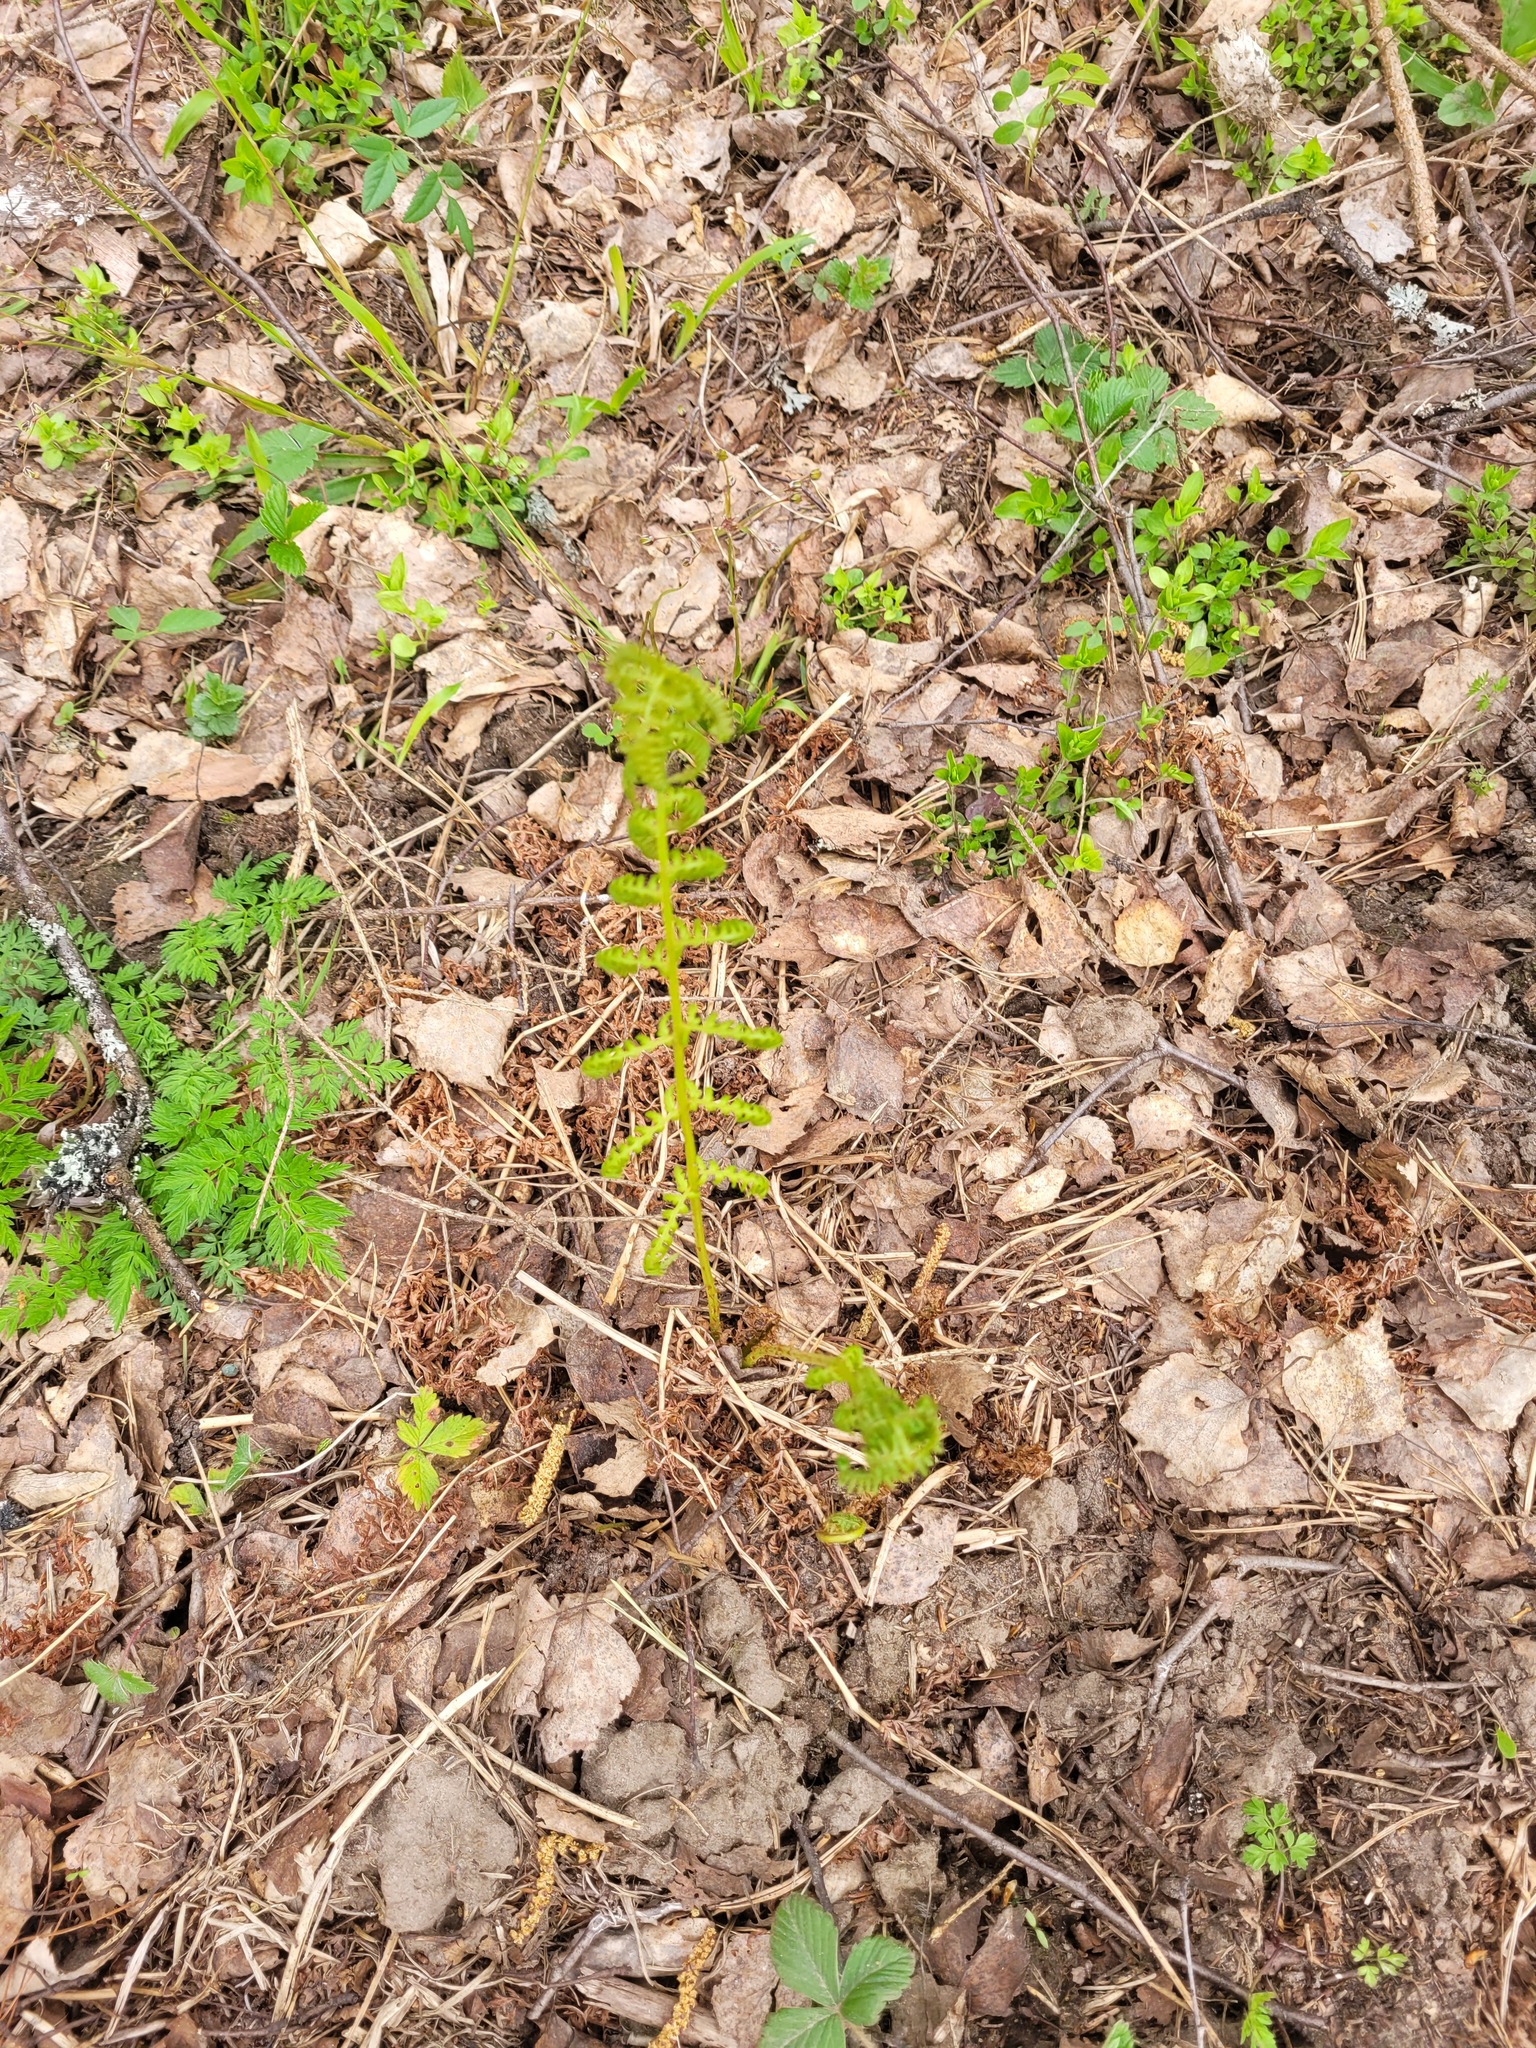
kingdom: Plantae
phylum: Tracheophyta
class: Polypodiopsida
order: Polypodiales
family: Athyriaceae
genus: Athyrium
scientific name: Athyrium filix-femina
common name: Lady fern
